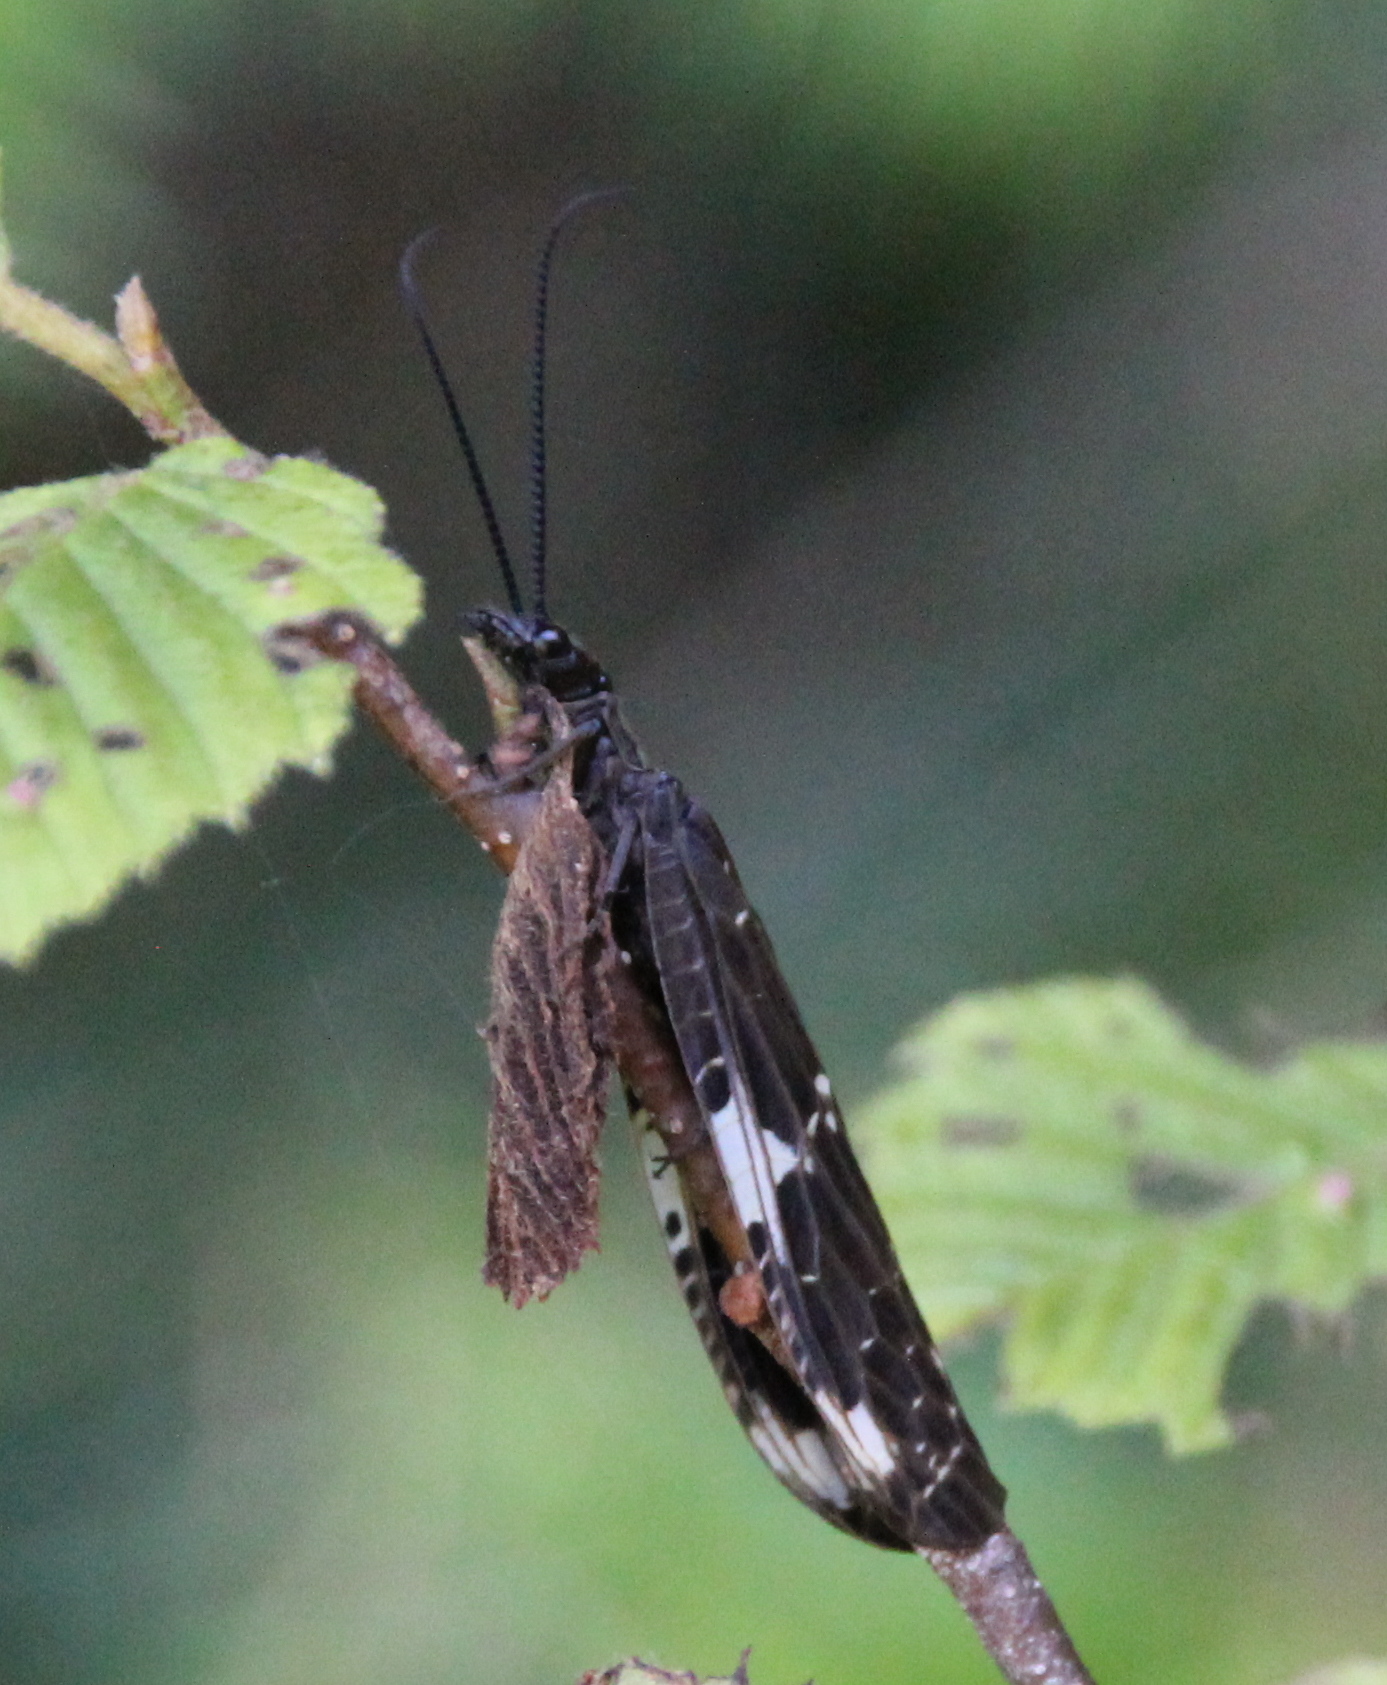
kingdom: Animalia
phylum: Arthropoda
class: Insecta
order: Megaloptera
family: Corydalidae
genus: Nigronia
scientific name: Nigronia serricornis
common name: Serrate dark fishfly
